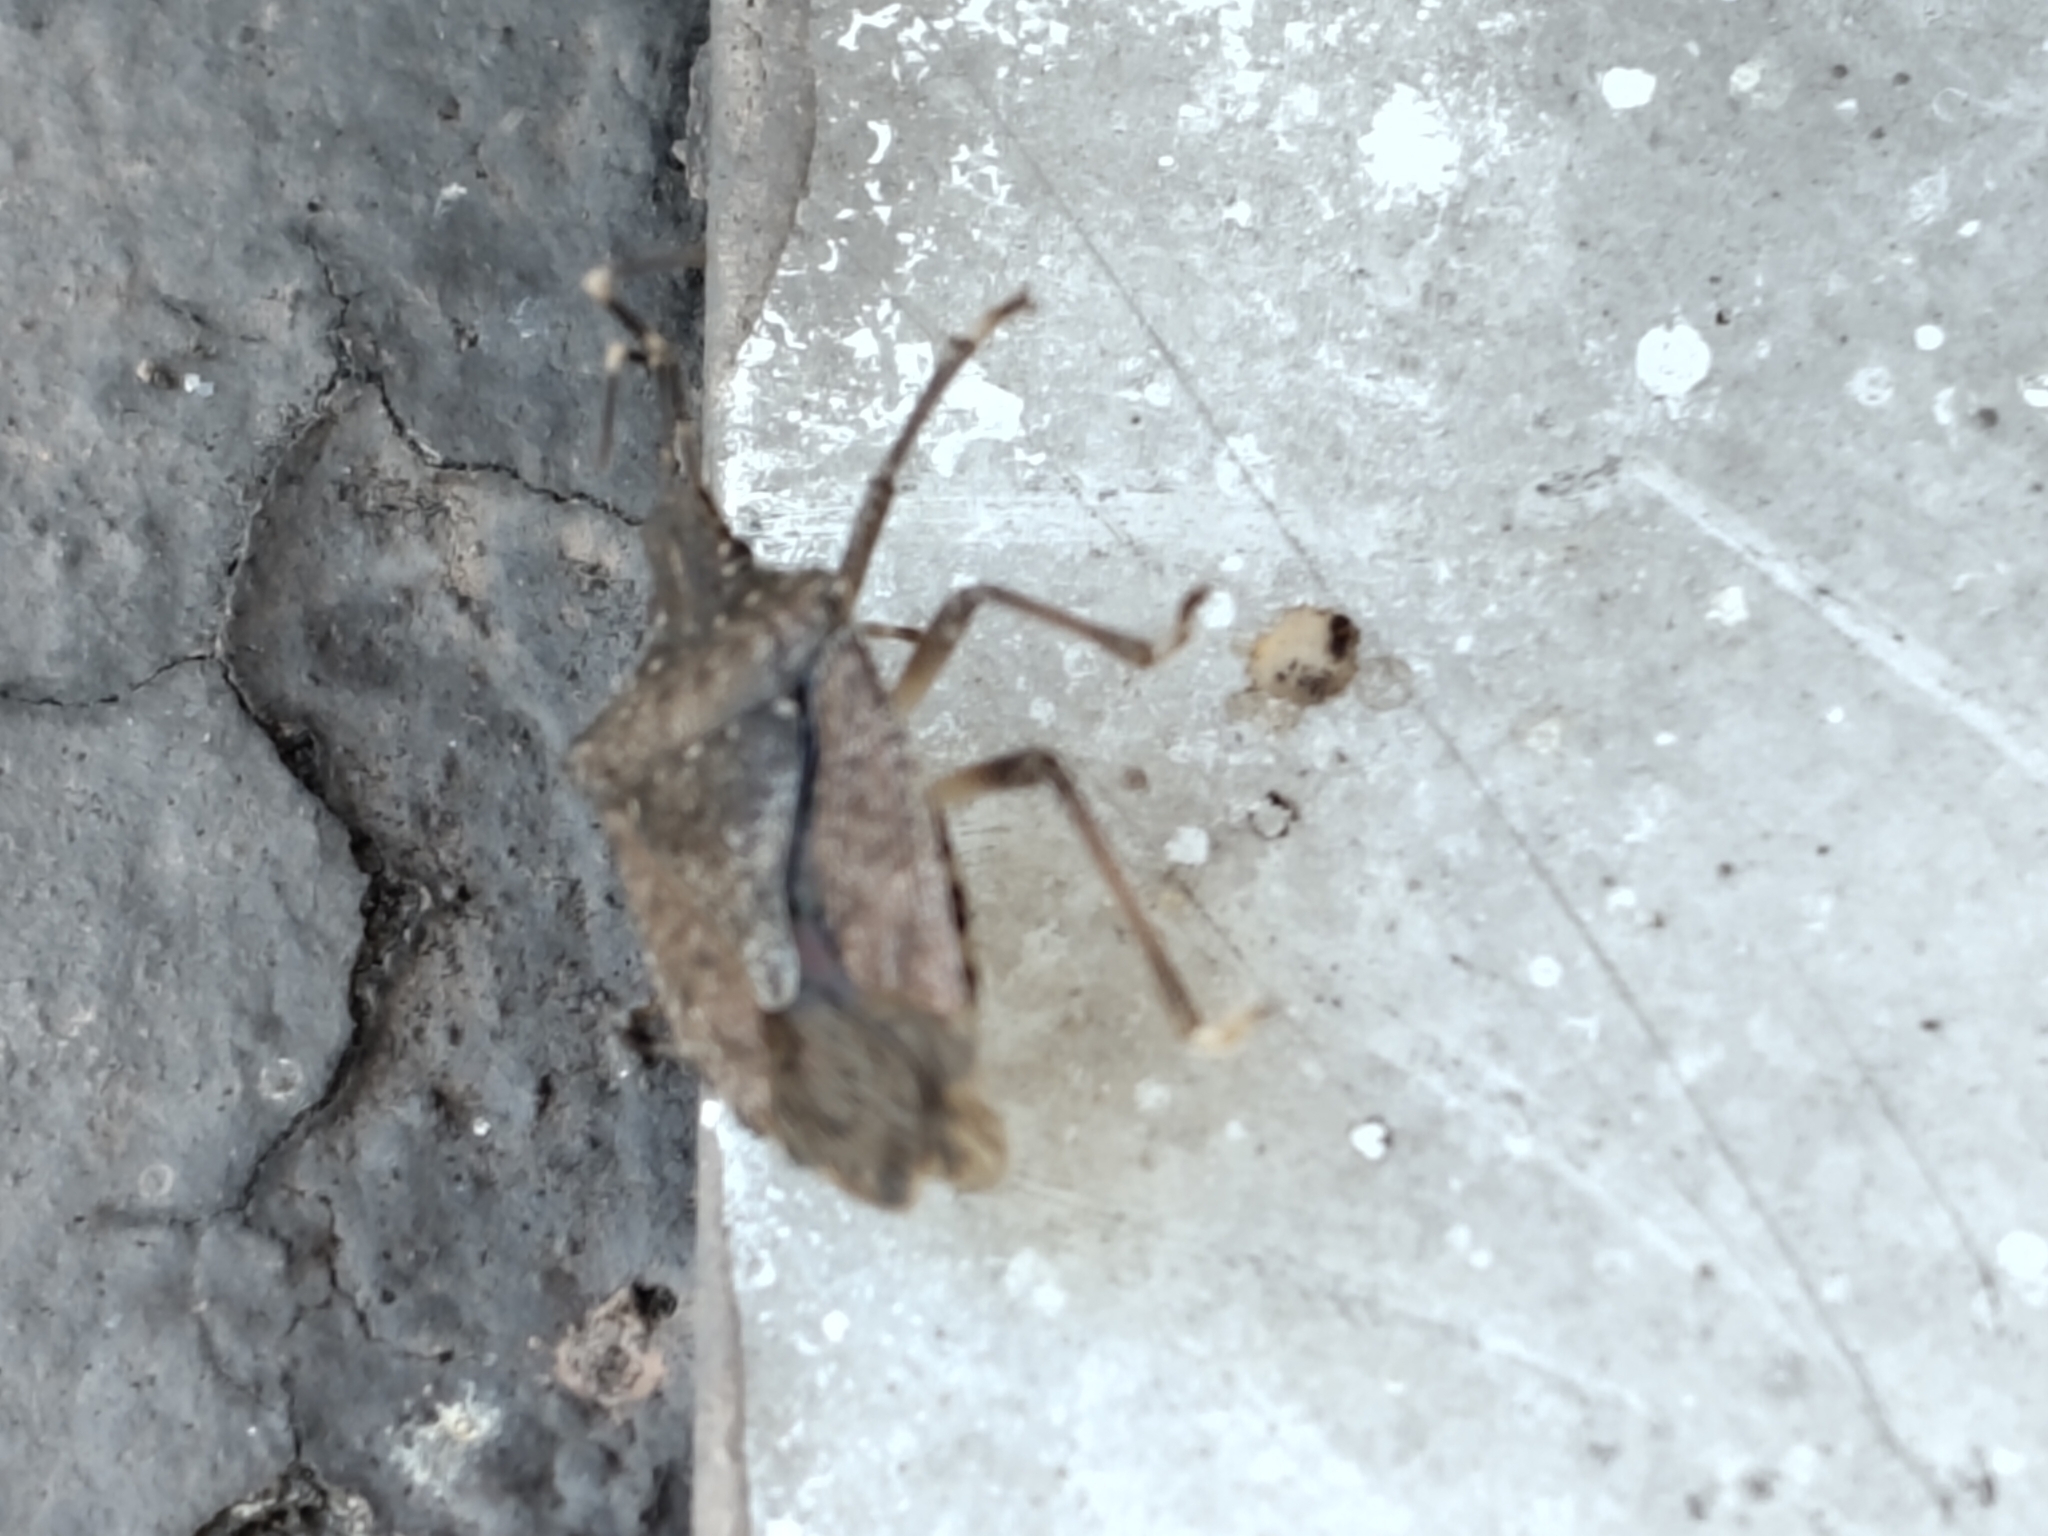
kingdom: Animalia
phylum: Arthropoda
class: Insecta
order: Hemiptera
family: Pentatomidae
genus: Halyomorpha
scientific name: Halyomorpha halys
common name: Brown marmorated stink bug
